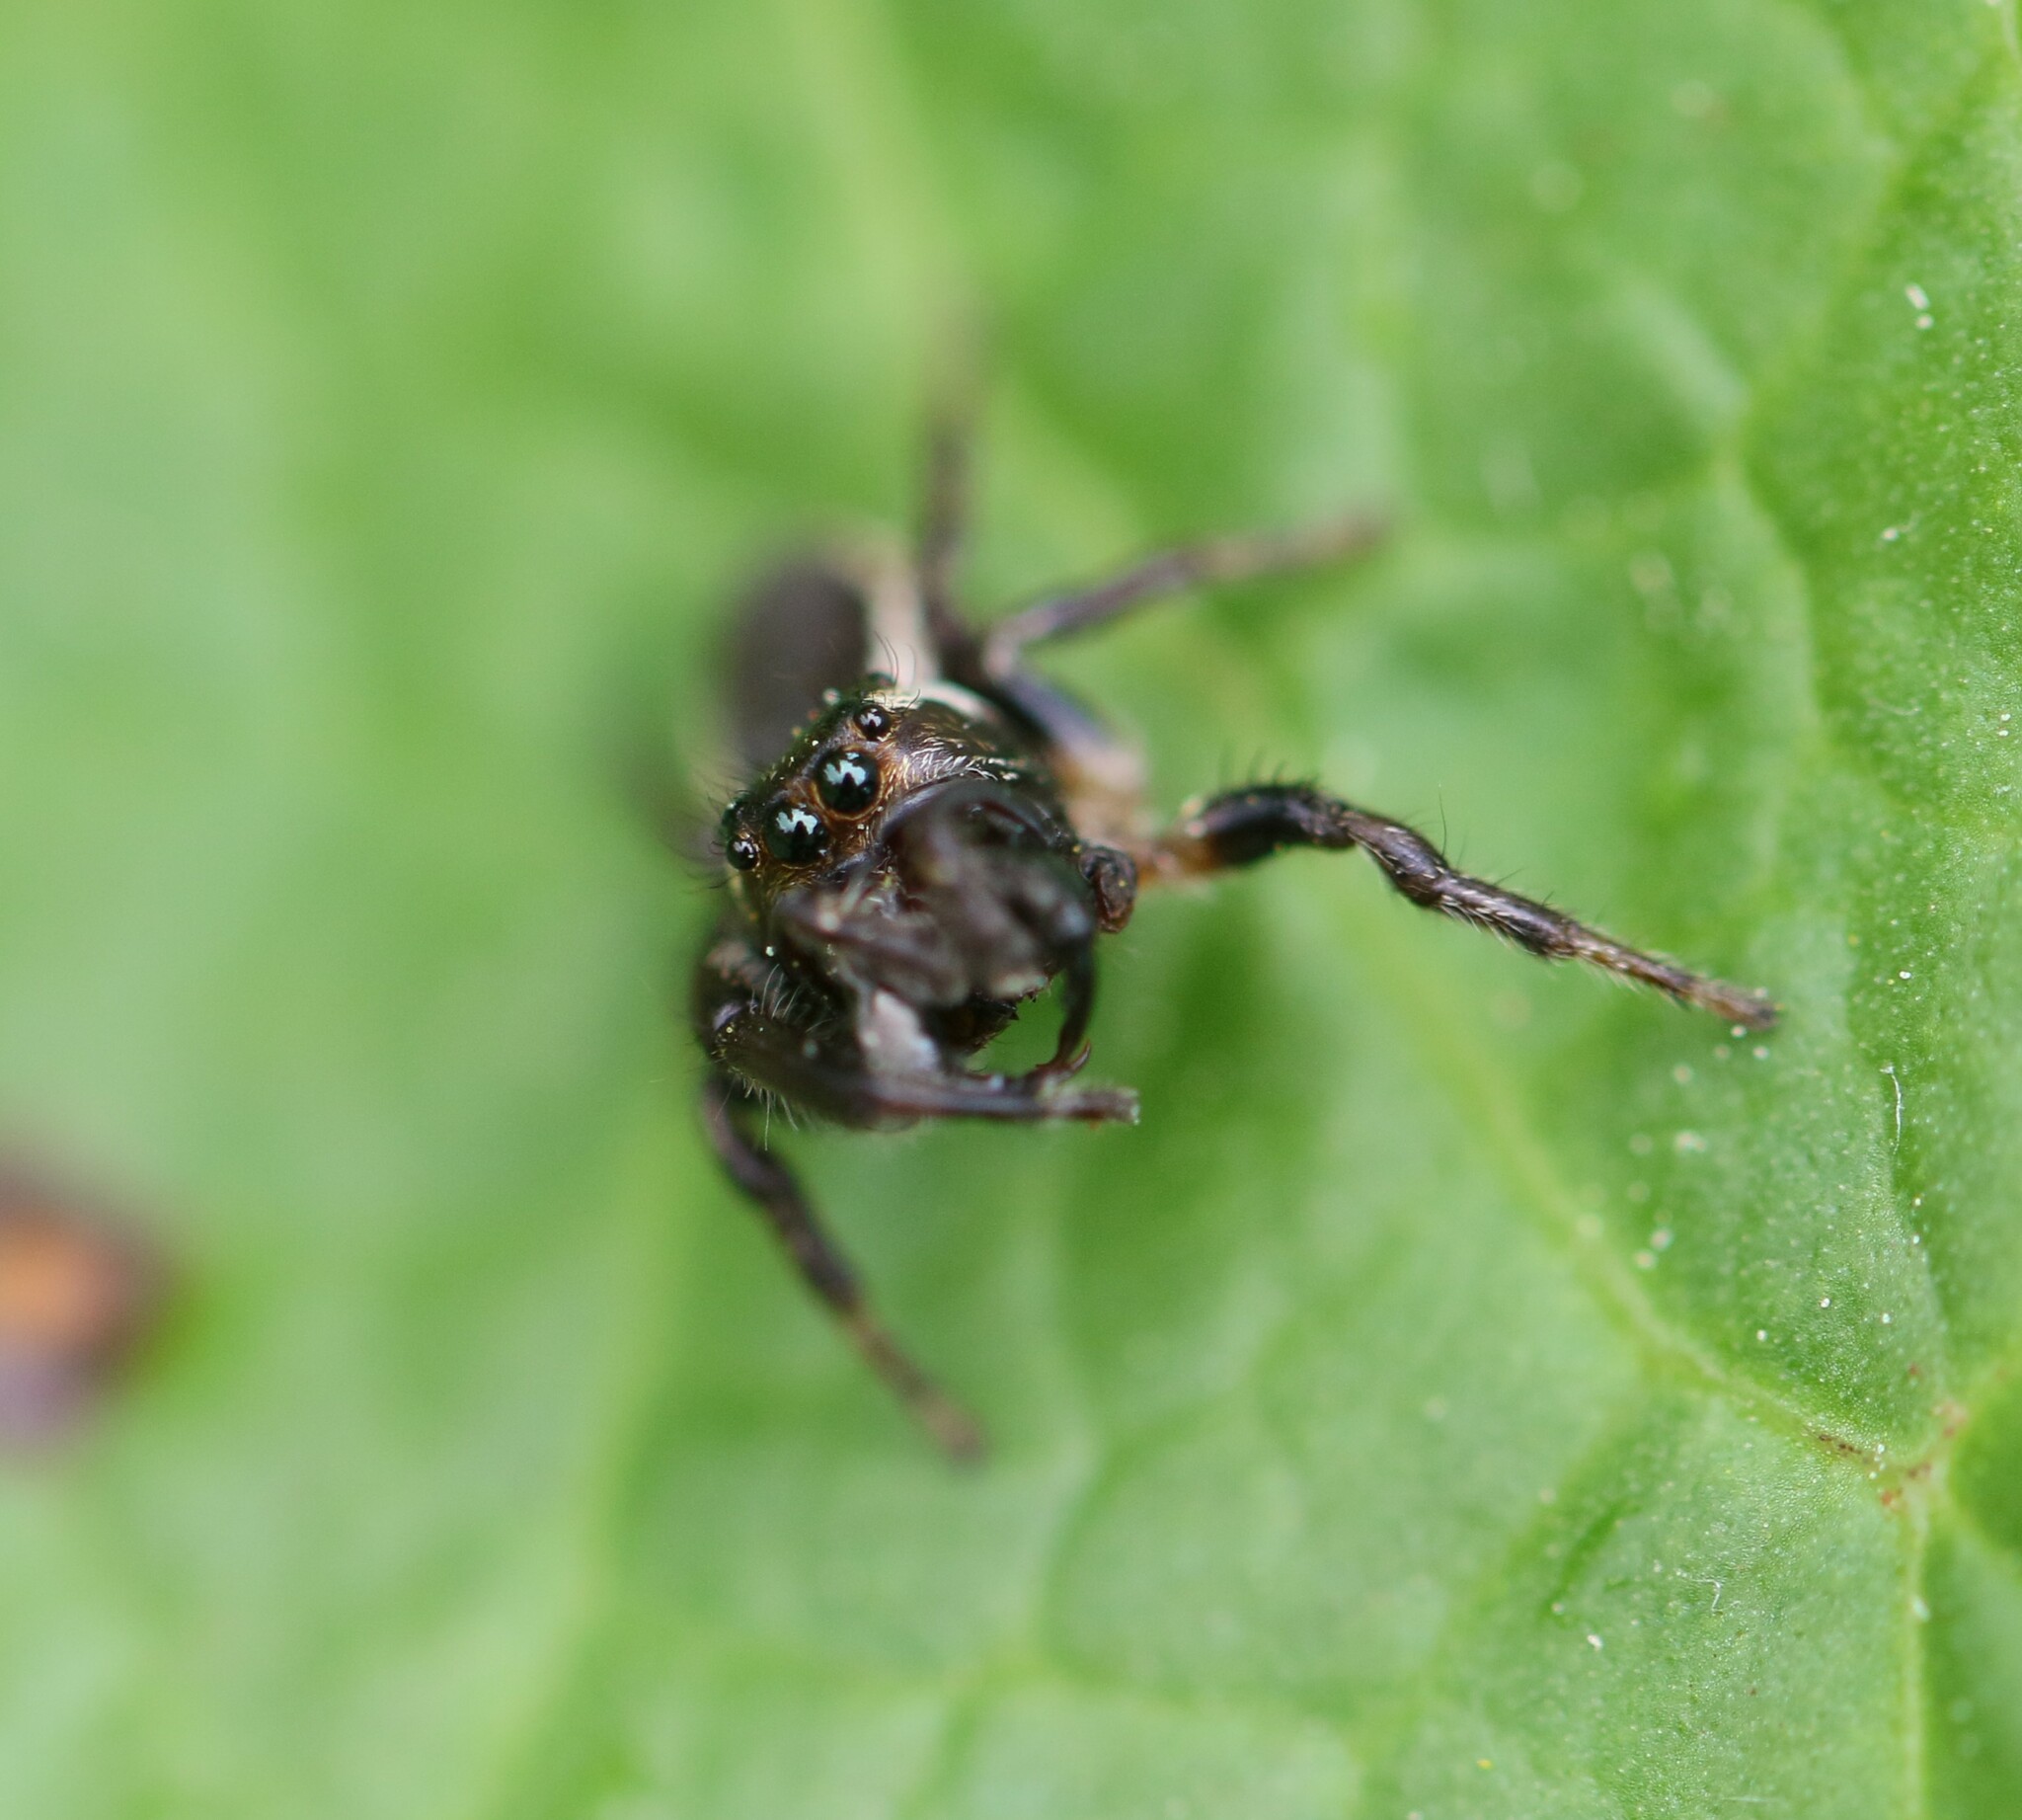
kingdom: Animalia
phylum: Arthropoda
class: Arachnida
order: Araneae
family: Salticidae
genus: Eris
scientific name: Eris militaris
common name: Bronze jumper
